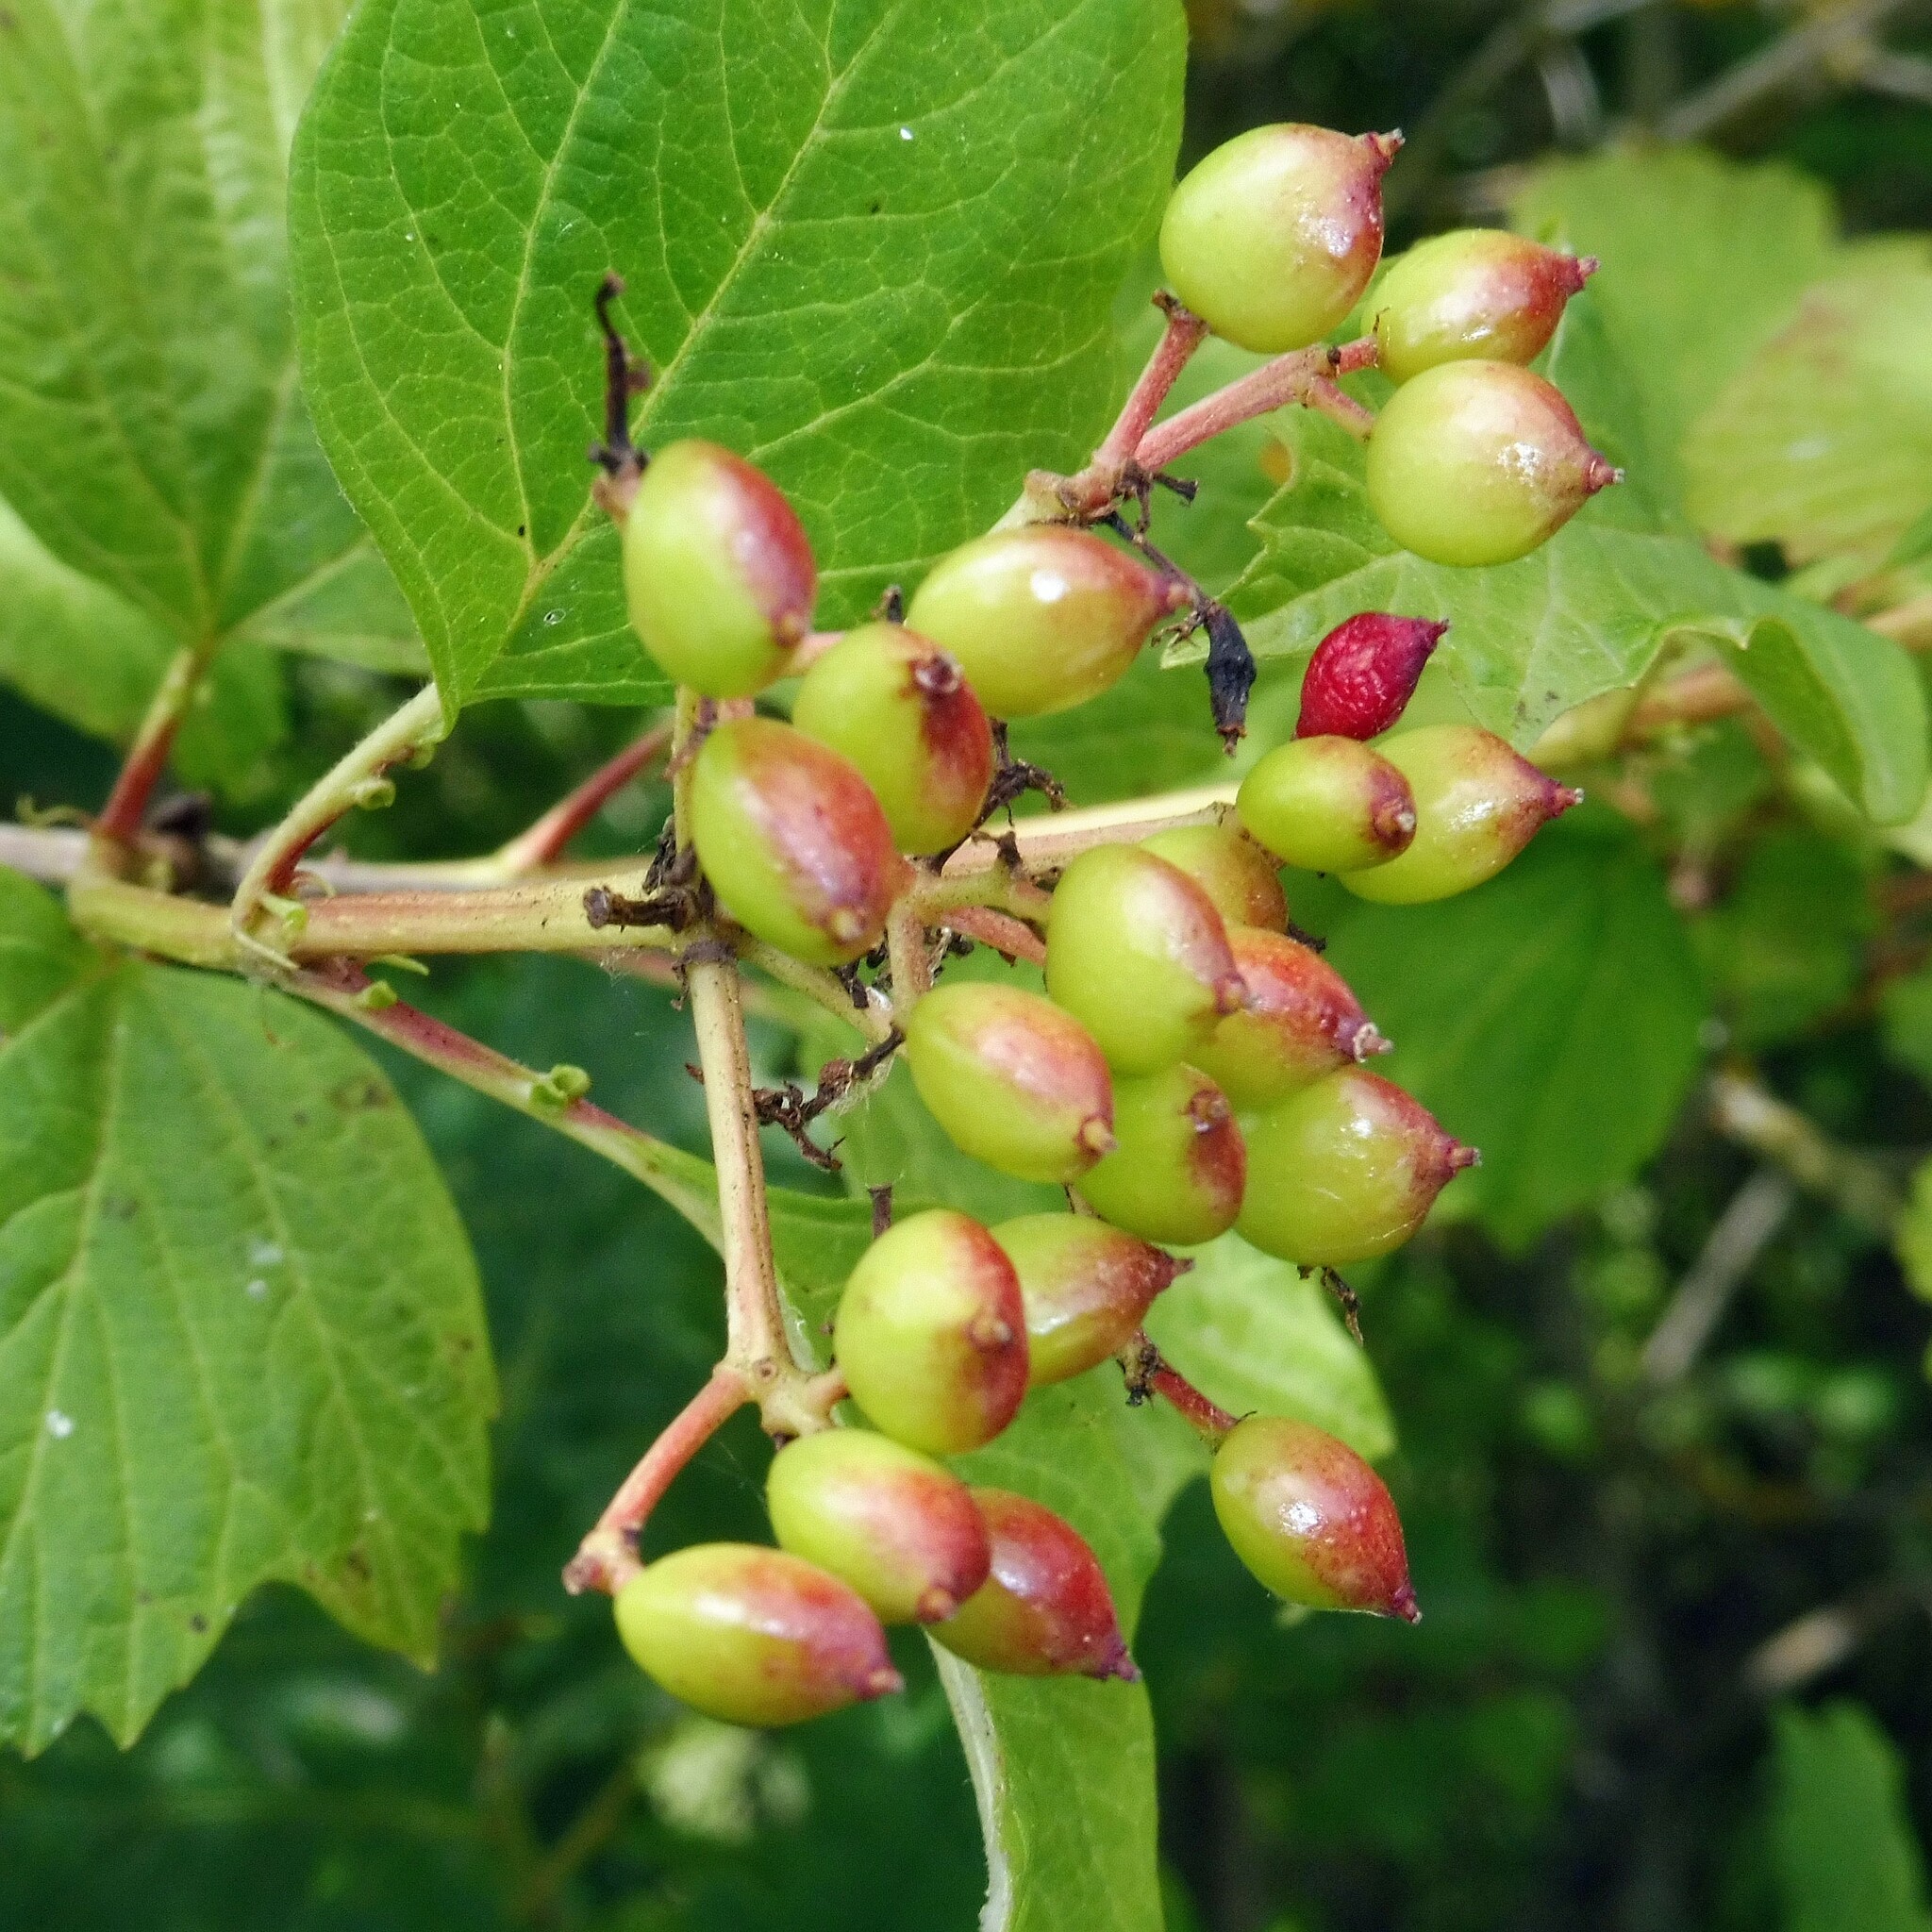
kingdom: Plantae
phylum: Tracheophyta
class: Magnoliopsida
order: Dipsacales
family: Viburnaceae
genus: Viburnum
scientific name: Viburnum opulus
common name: Guelder-rose
